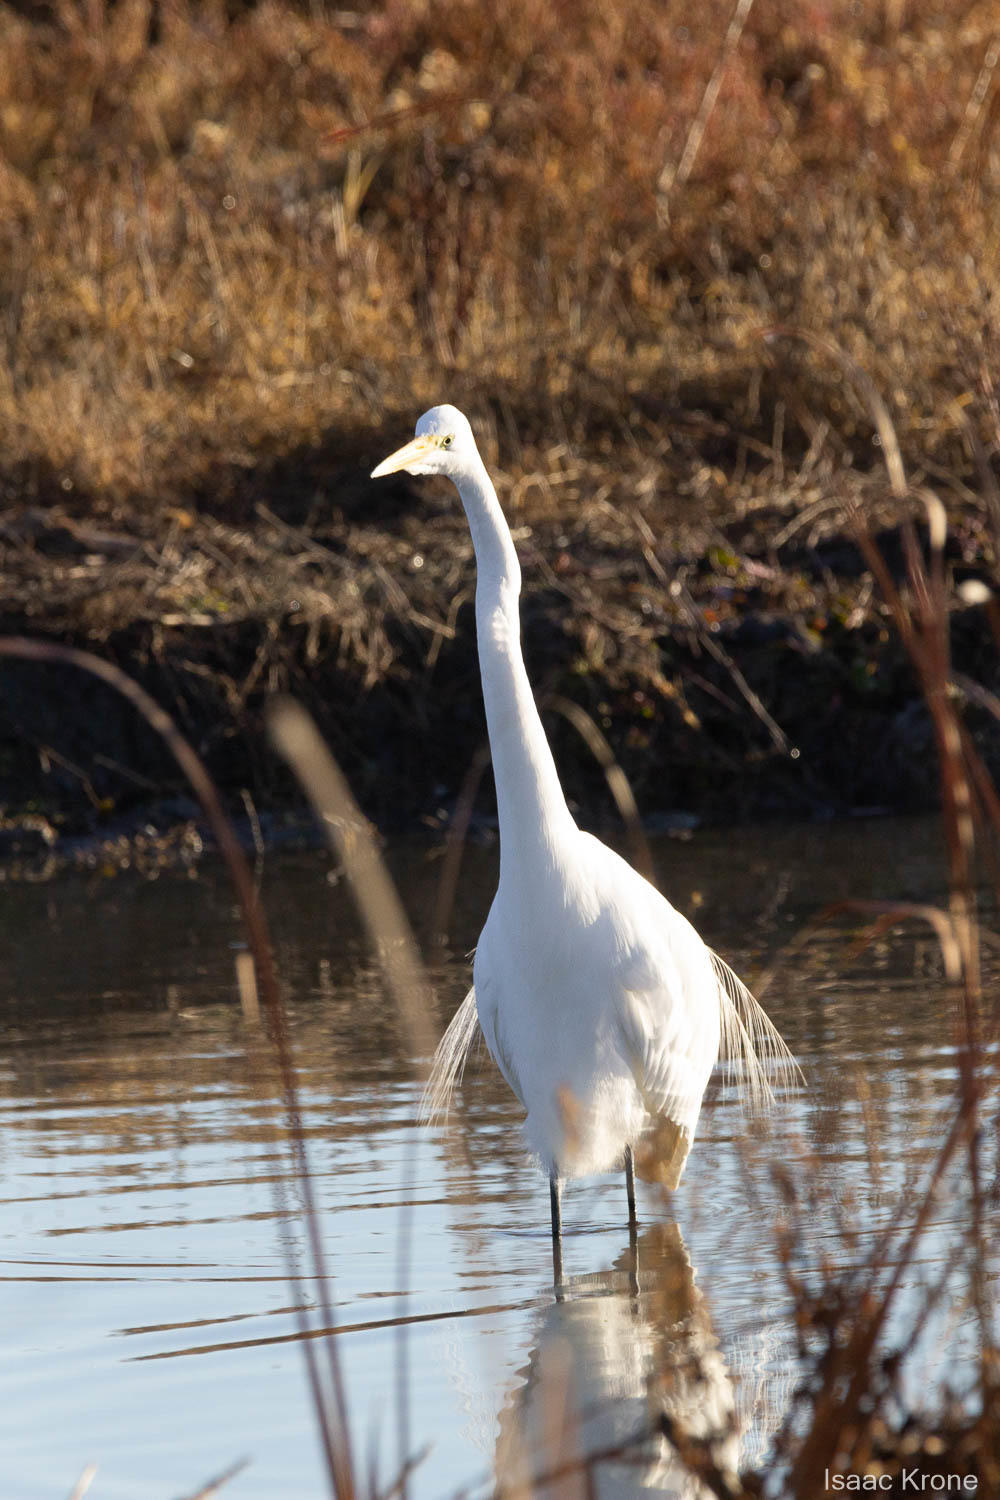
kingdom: Animalia
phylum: Chordata
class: Aves
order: Pelecaniformes
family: Ardeidae
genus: Ardea
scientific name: Ardea alba
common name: Great egret
